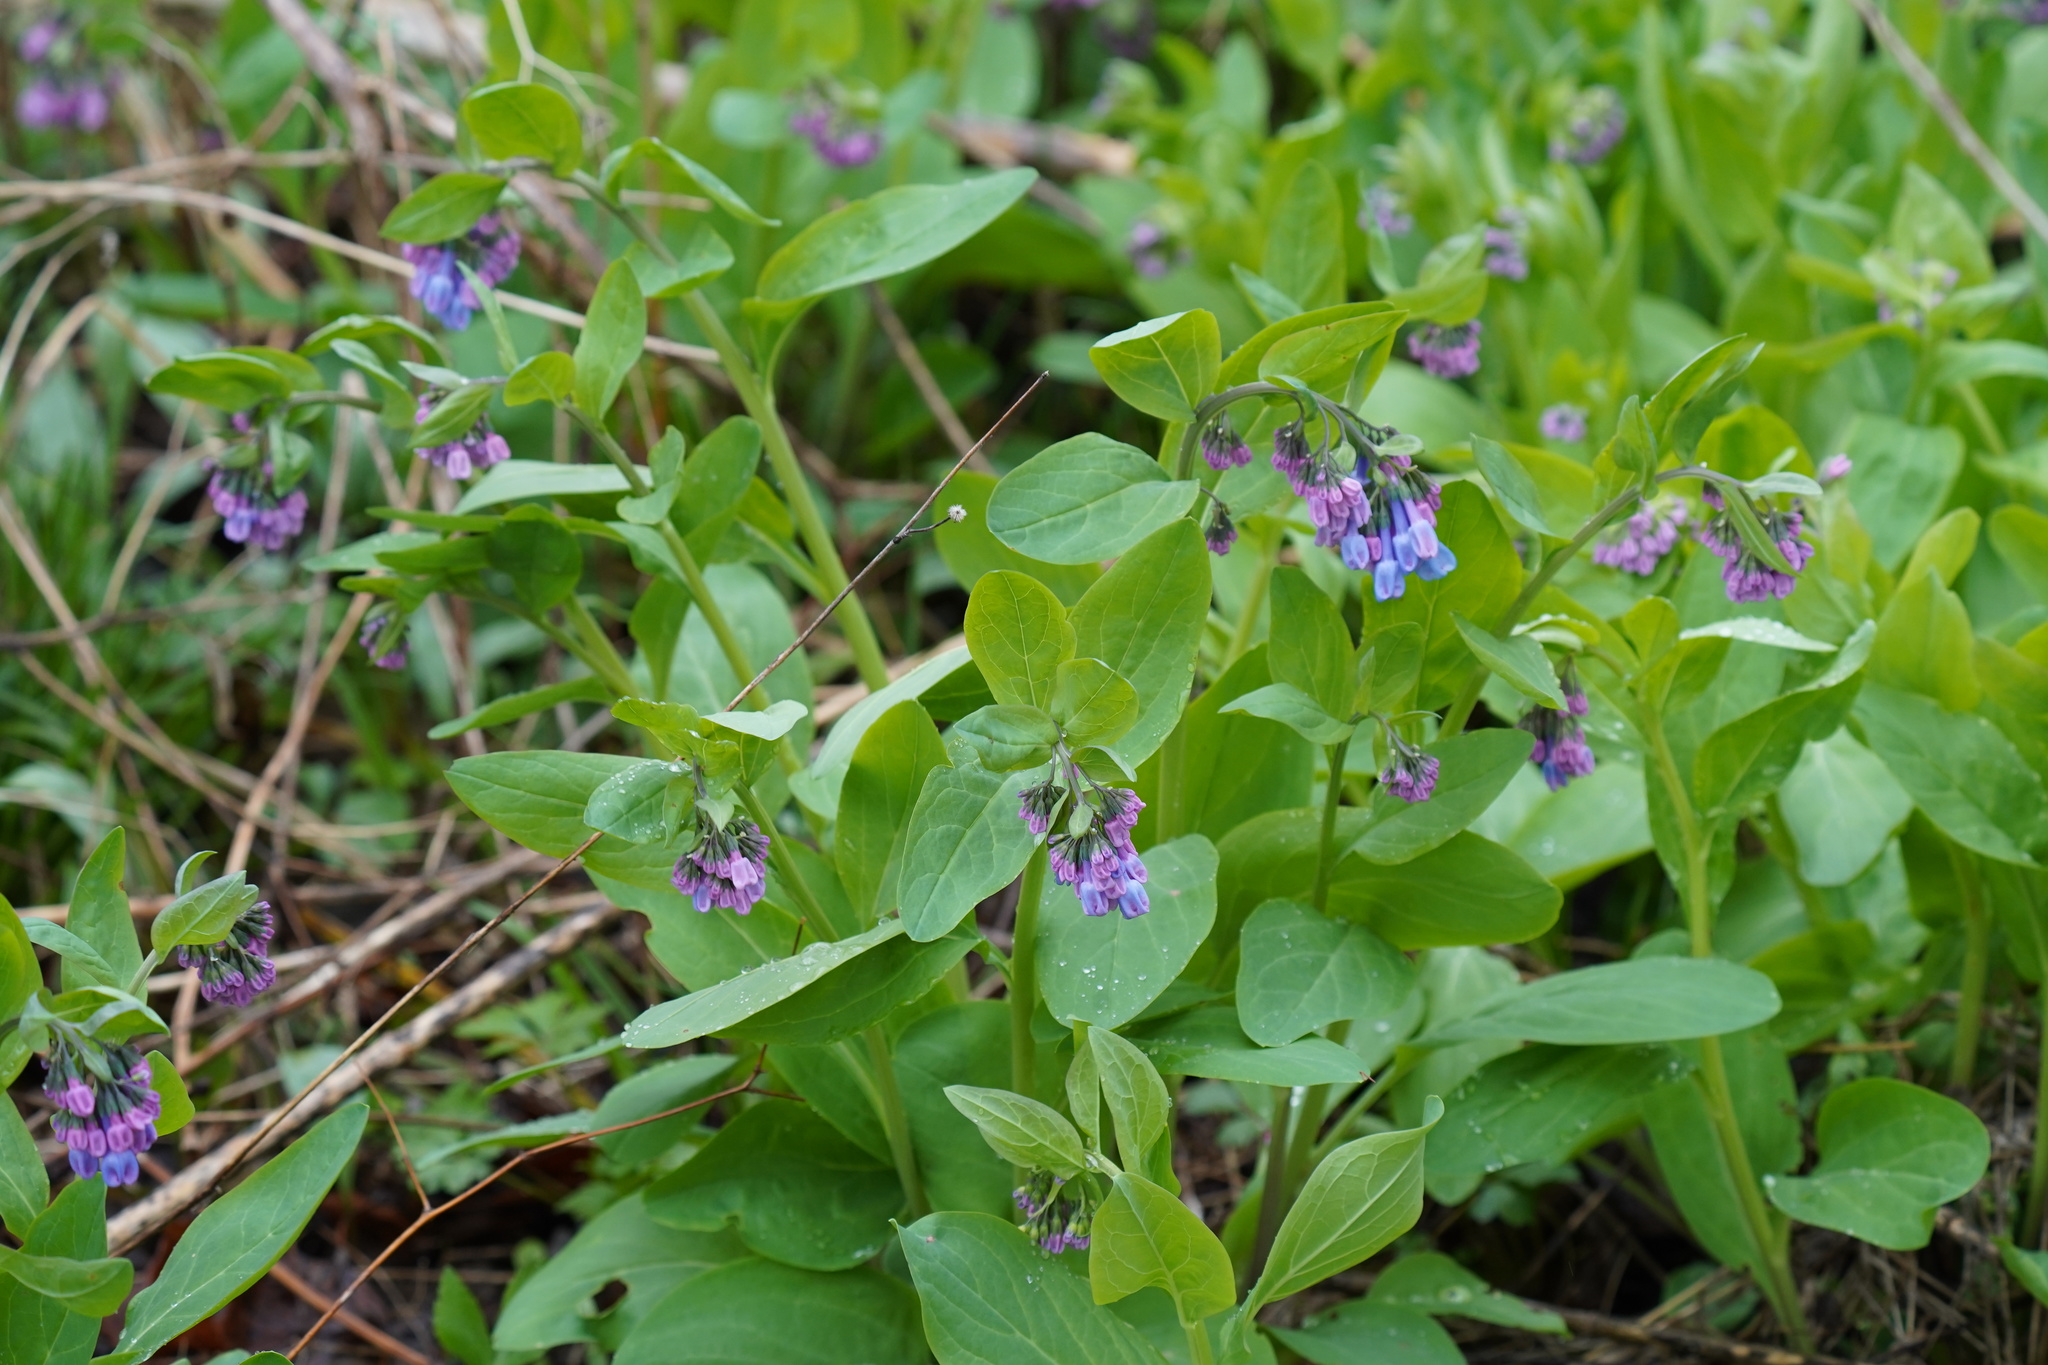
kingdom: Plantae
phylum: Tracheophyta
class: Magnoliopsida
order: Boraginales
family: Boraginaceae
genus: Mertensia
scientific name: Mertensia virginica
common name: Virginia bluebells
